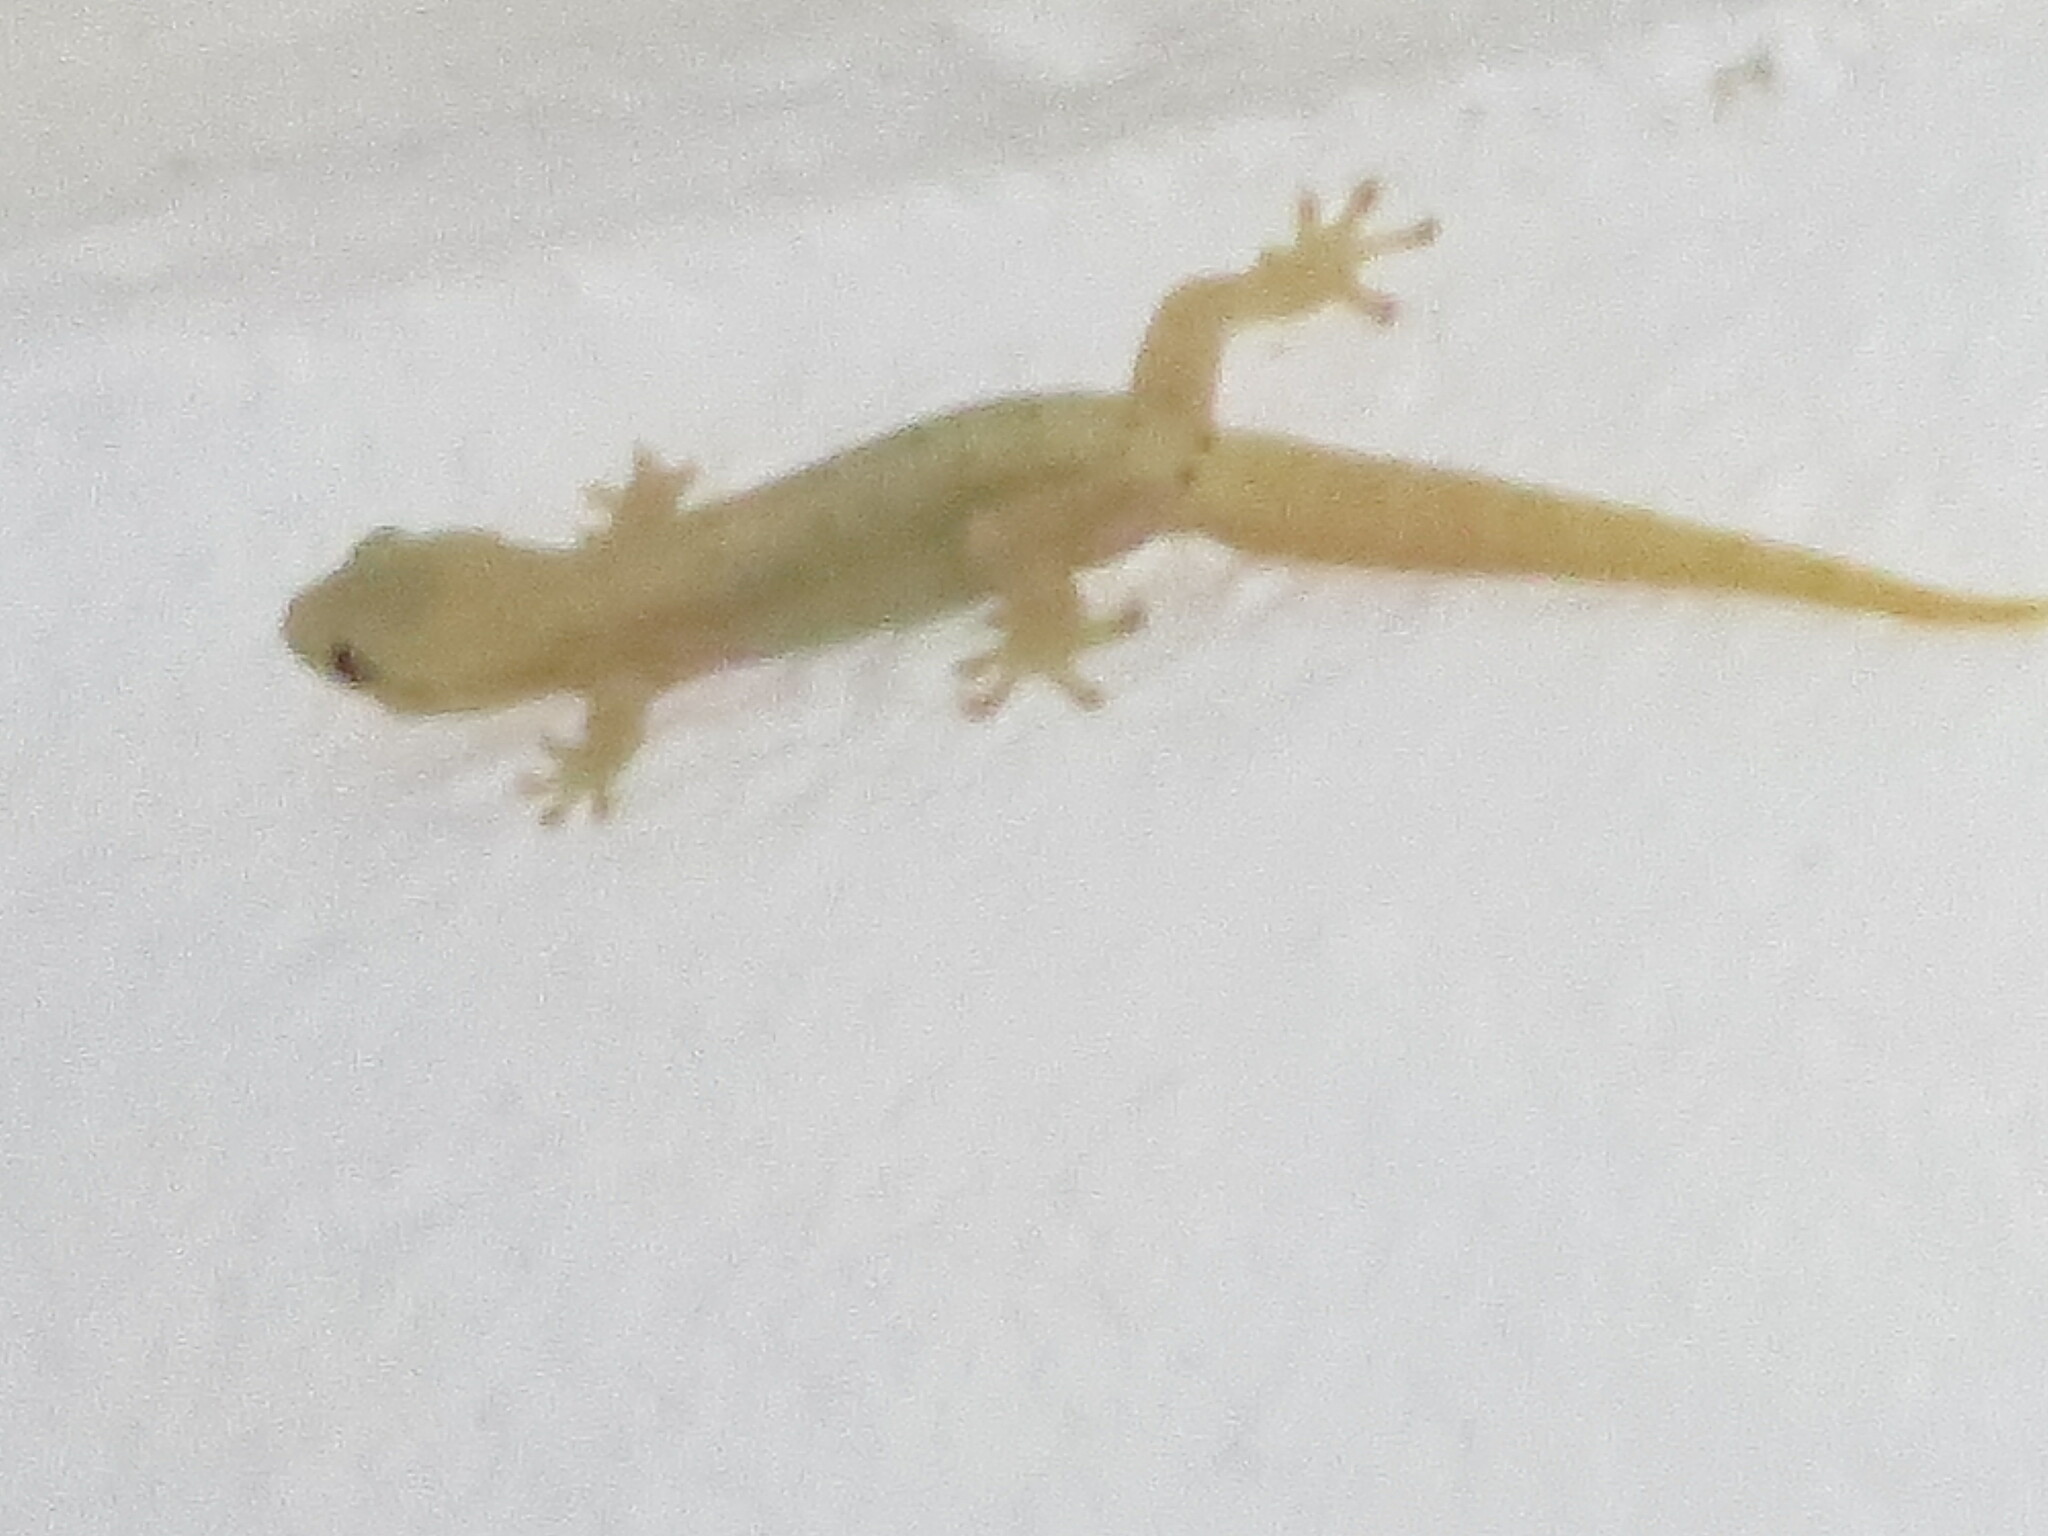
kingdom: Animalia
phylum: Chordata
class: Squamata
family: Gekkonidae
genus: Lepidodactylus
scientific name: Lepidodactylus lugubris
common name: Mourning gecko
